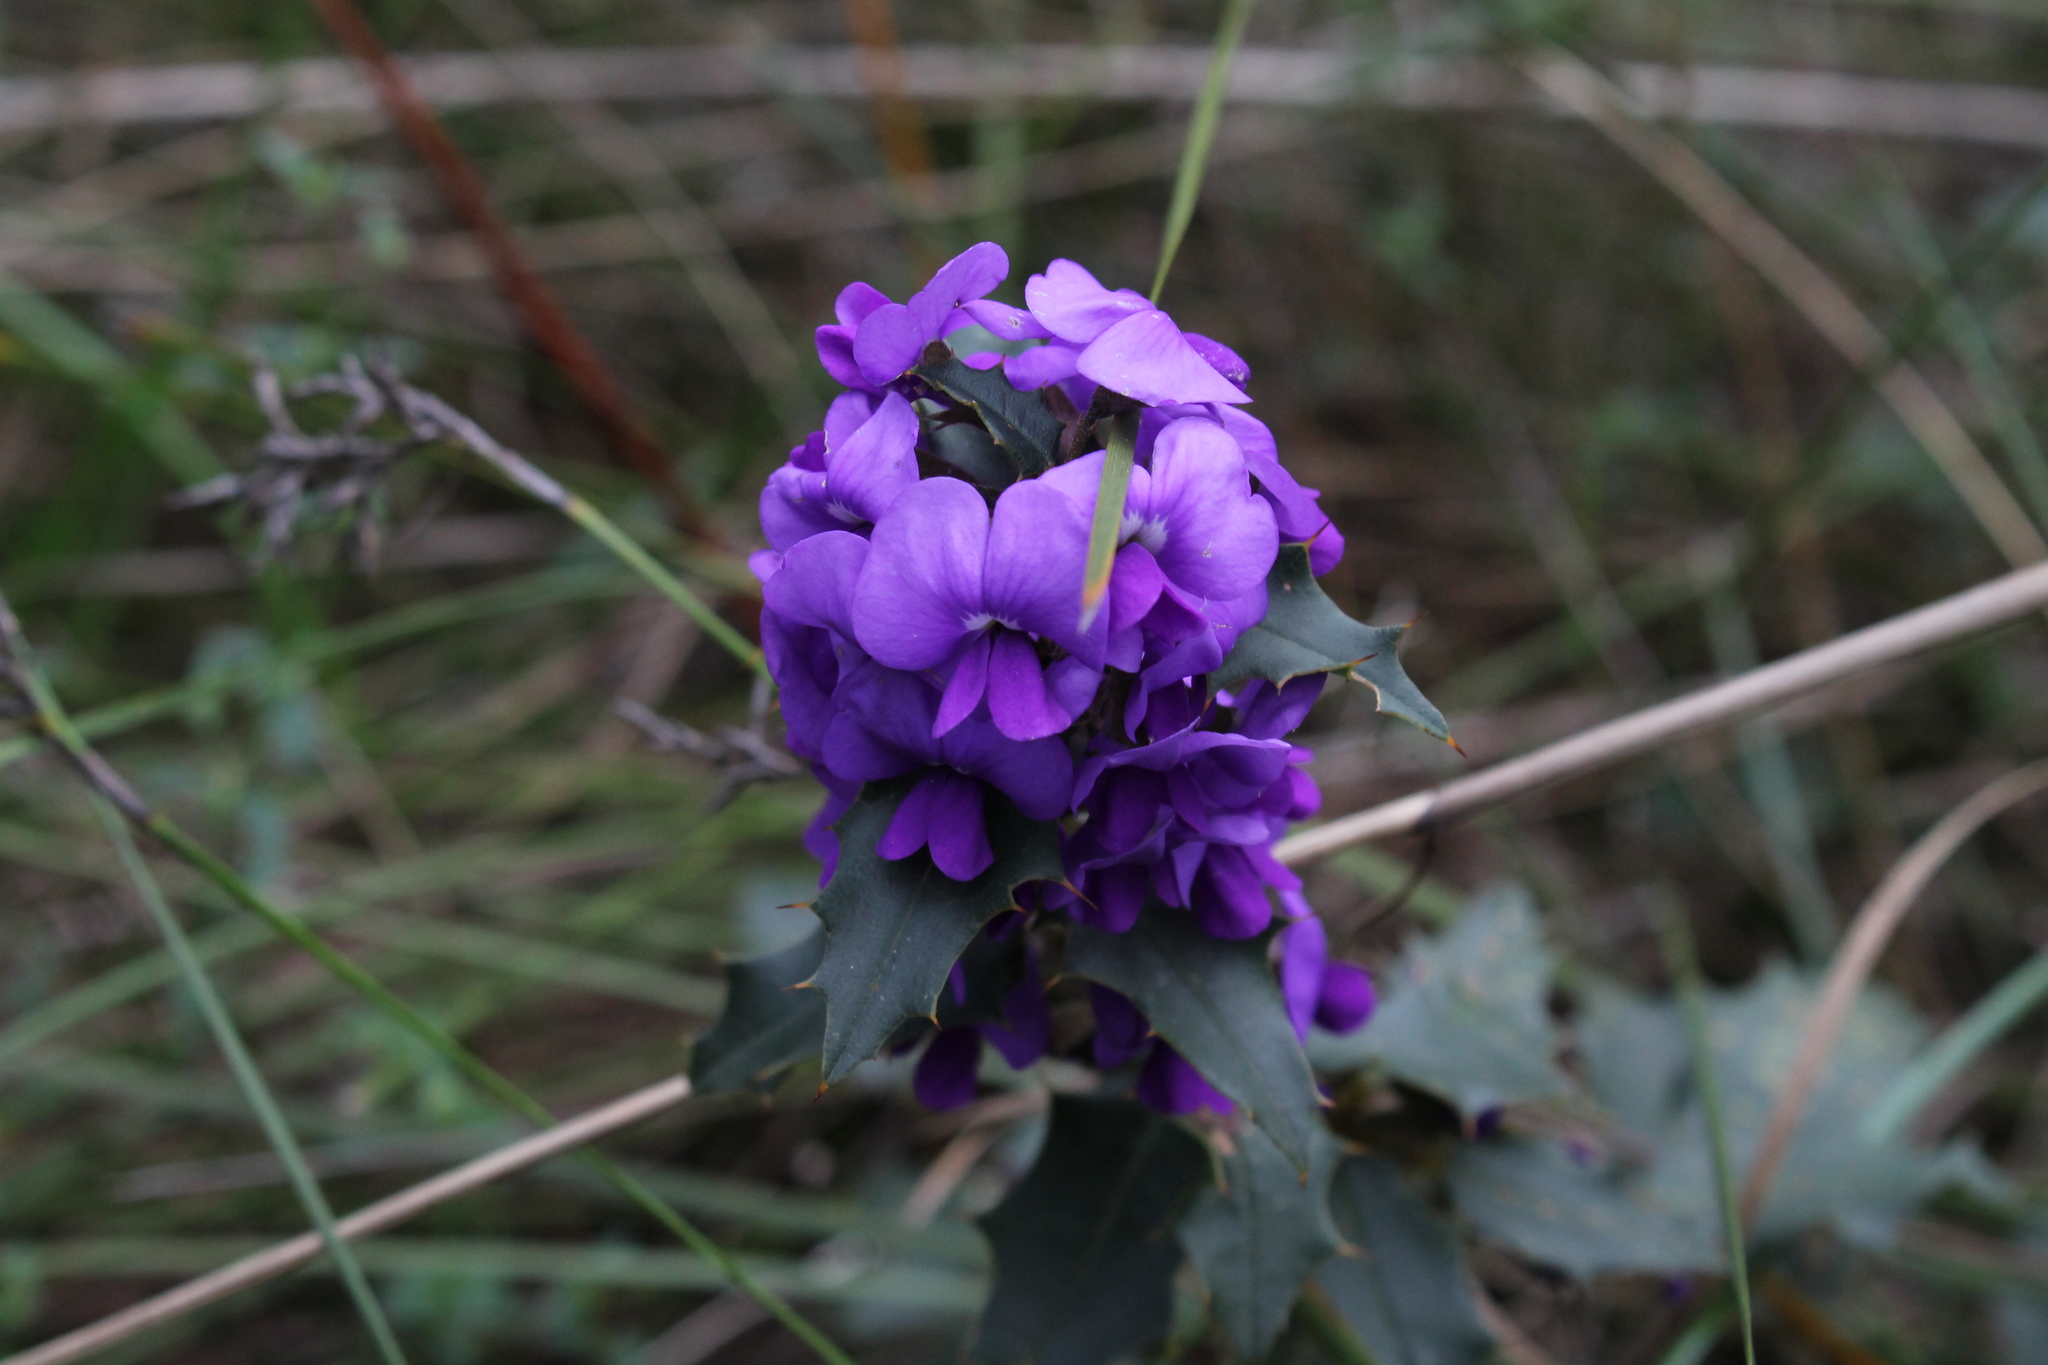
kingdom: Plantae
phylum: Tracheophyta
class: Magnoliopsida
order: Fabales
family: Fabaceae
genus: Hovea
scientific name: Hovea chorizemifolia
